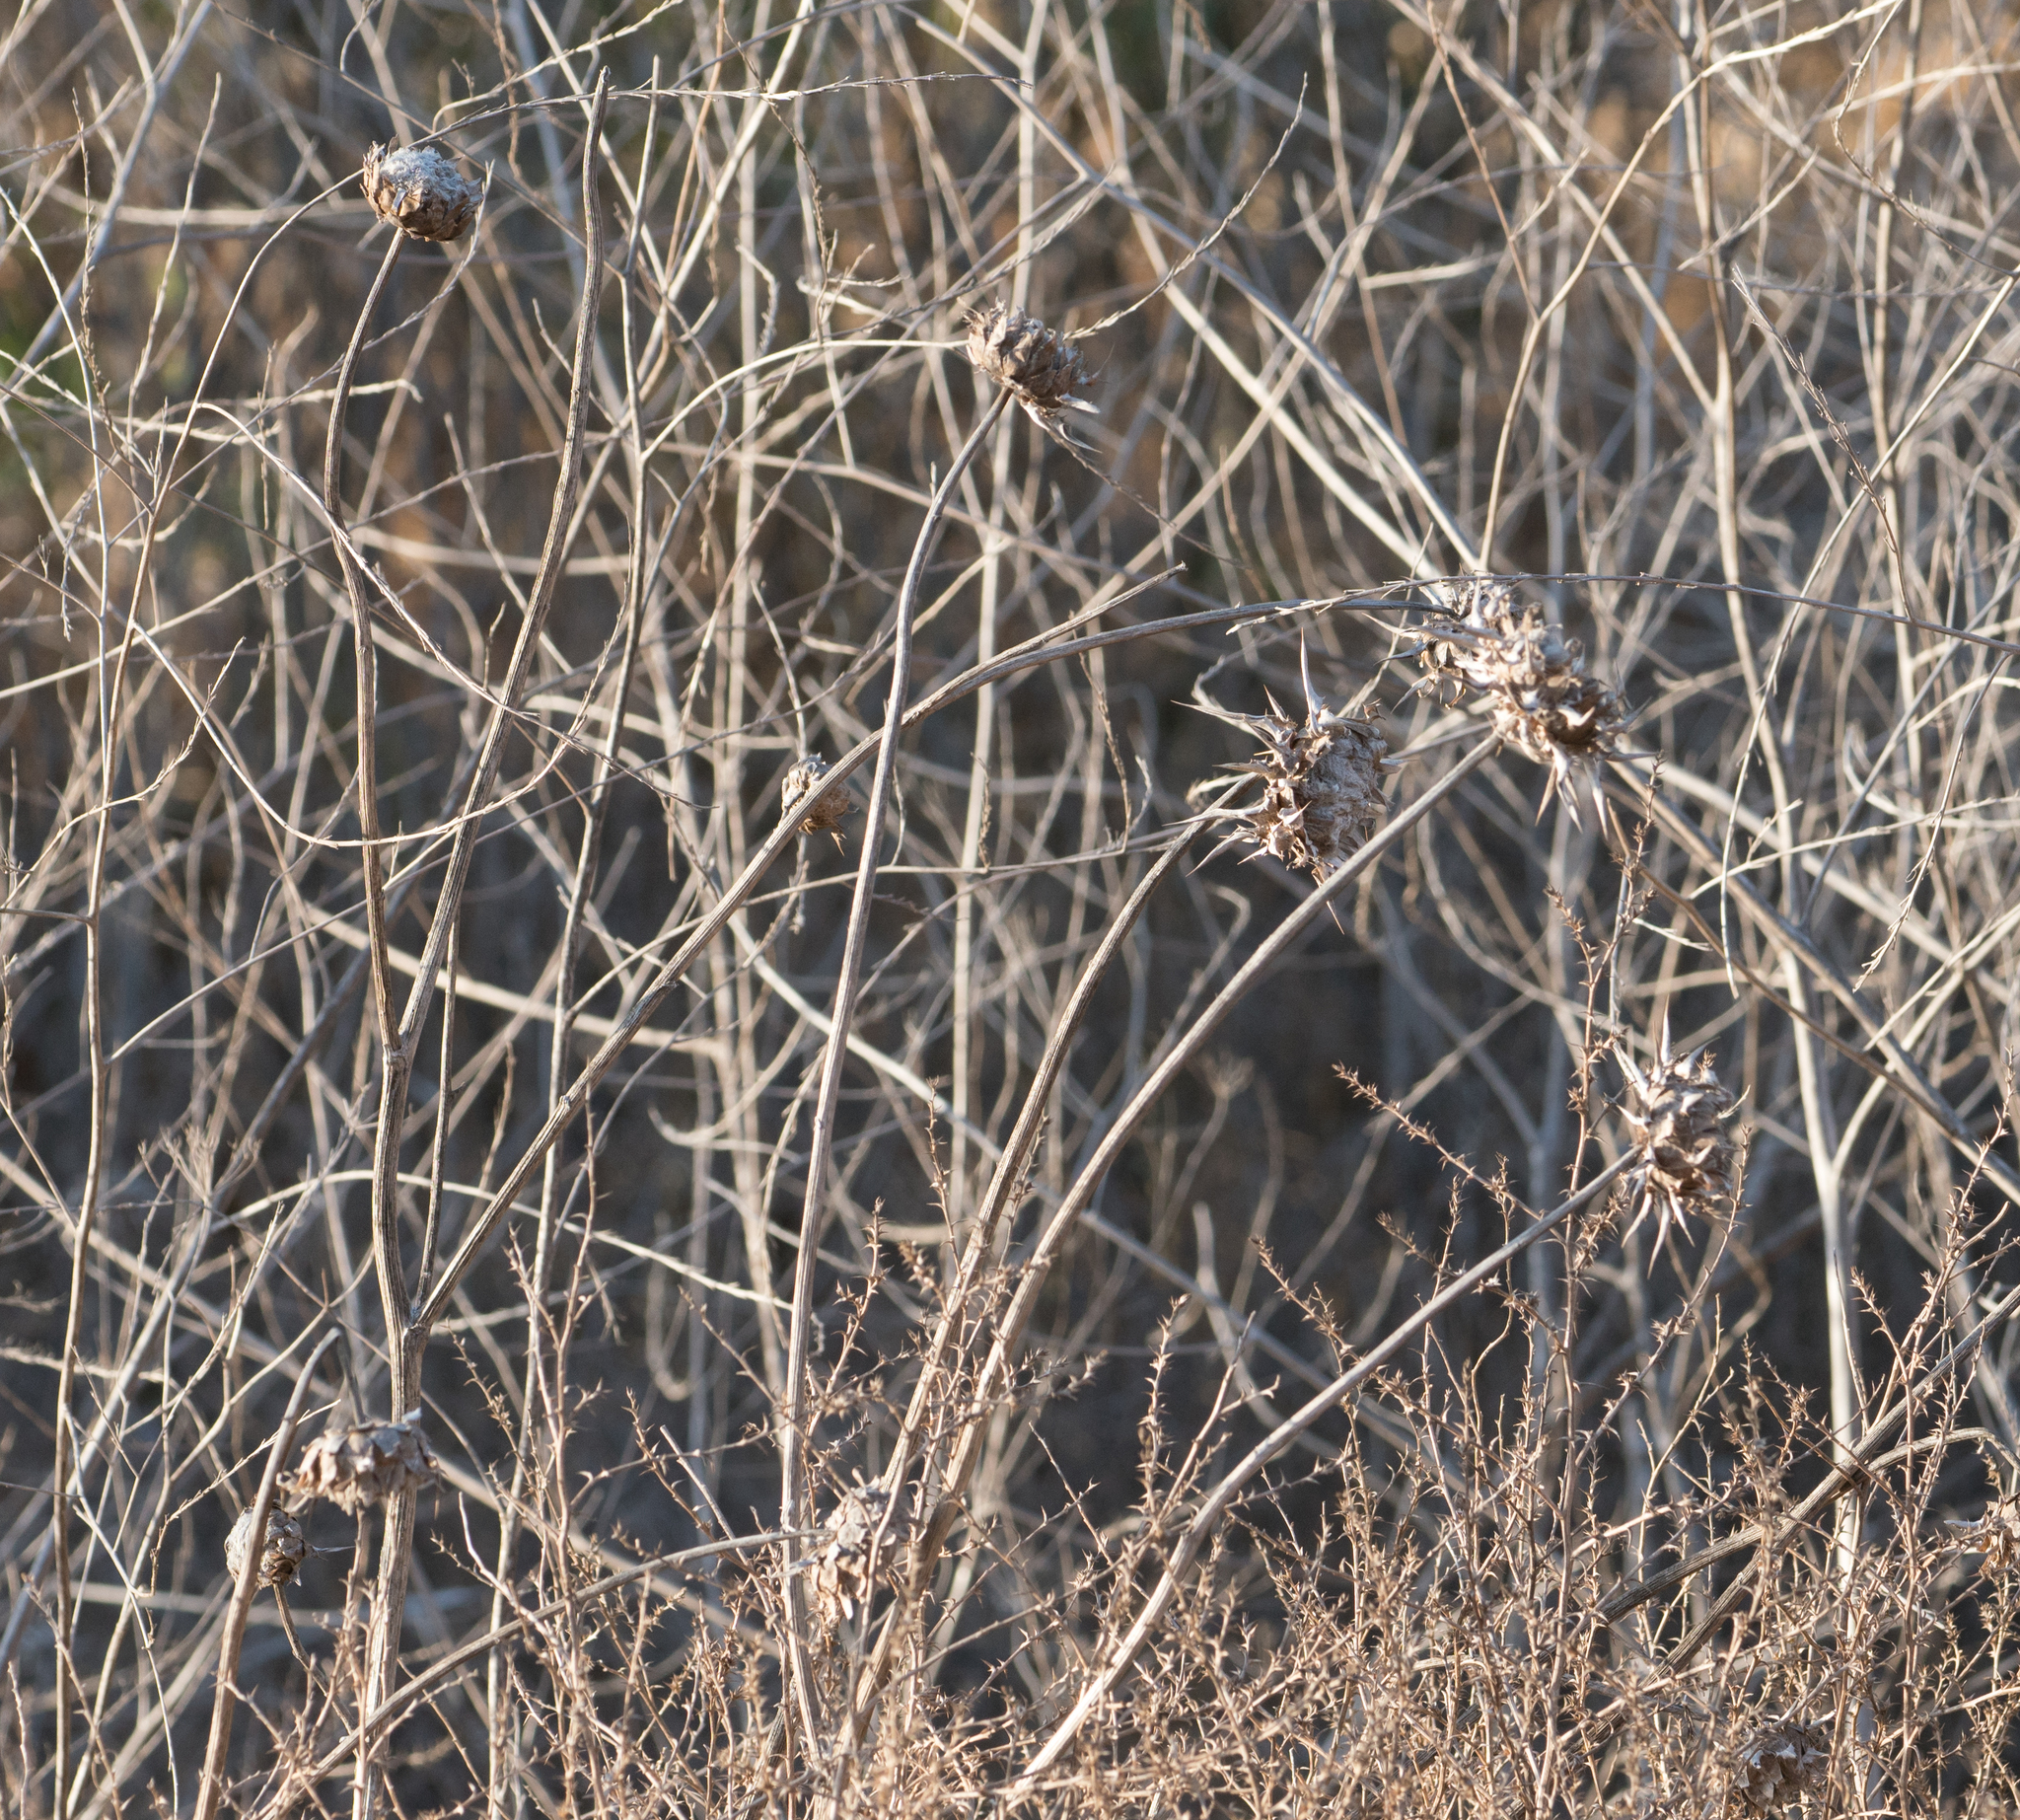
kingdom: Plantae
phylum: Tracheophyta
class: Magnoliopsida
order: Asterales
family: Asteraceae
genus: Silybum
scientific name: Silybum marianum
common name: Milk thistle
